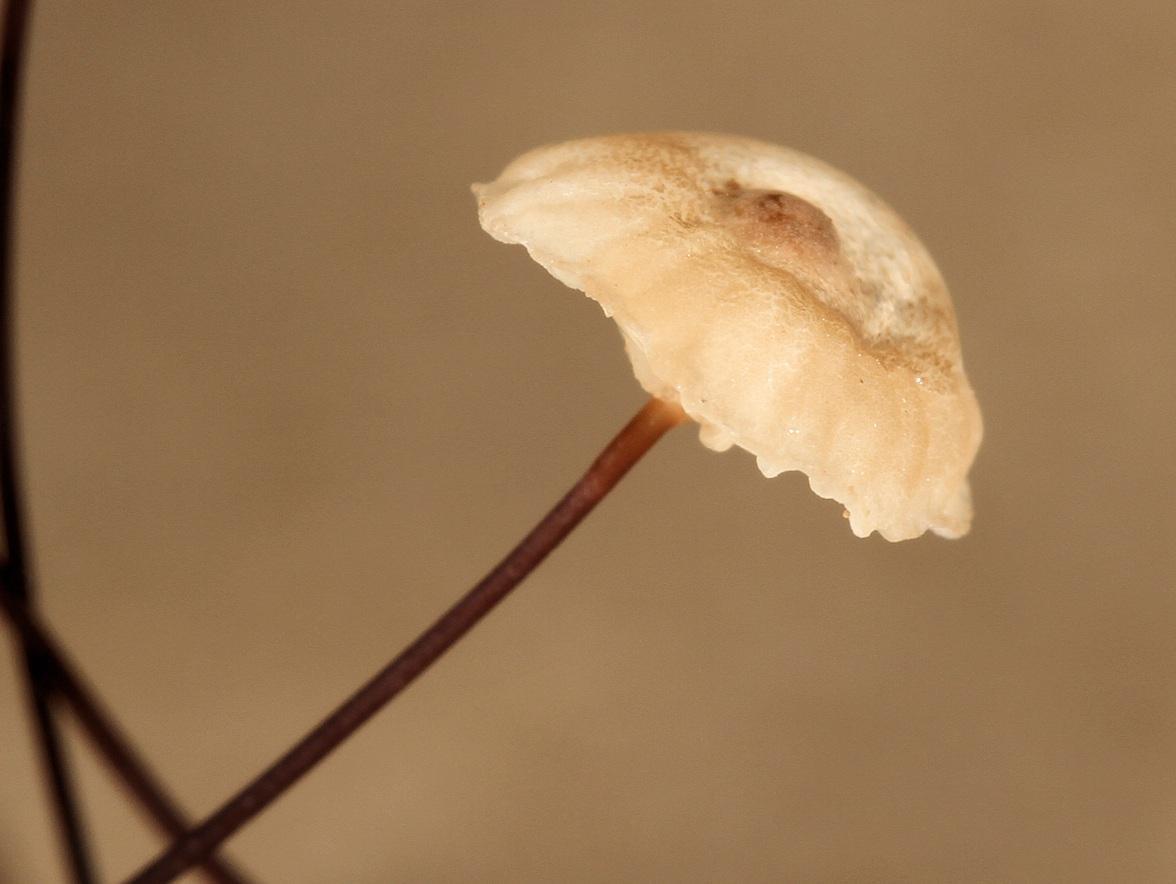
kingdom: Fungi
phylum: Basidiomycota
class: Agaricomycetes
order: Agaricales
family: Marasmiaceae
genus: Marasmius
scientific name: Marasmius rotula
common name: Collared parachute
